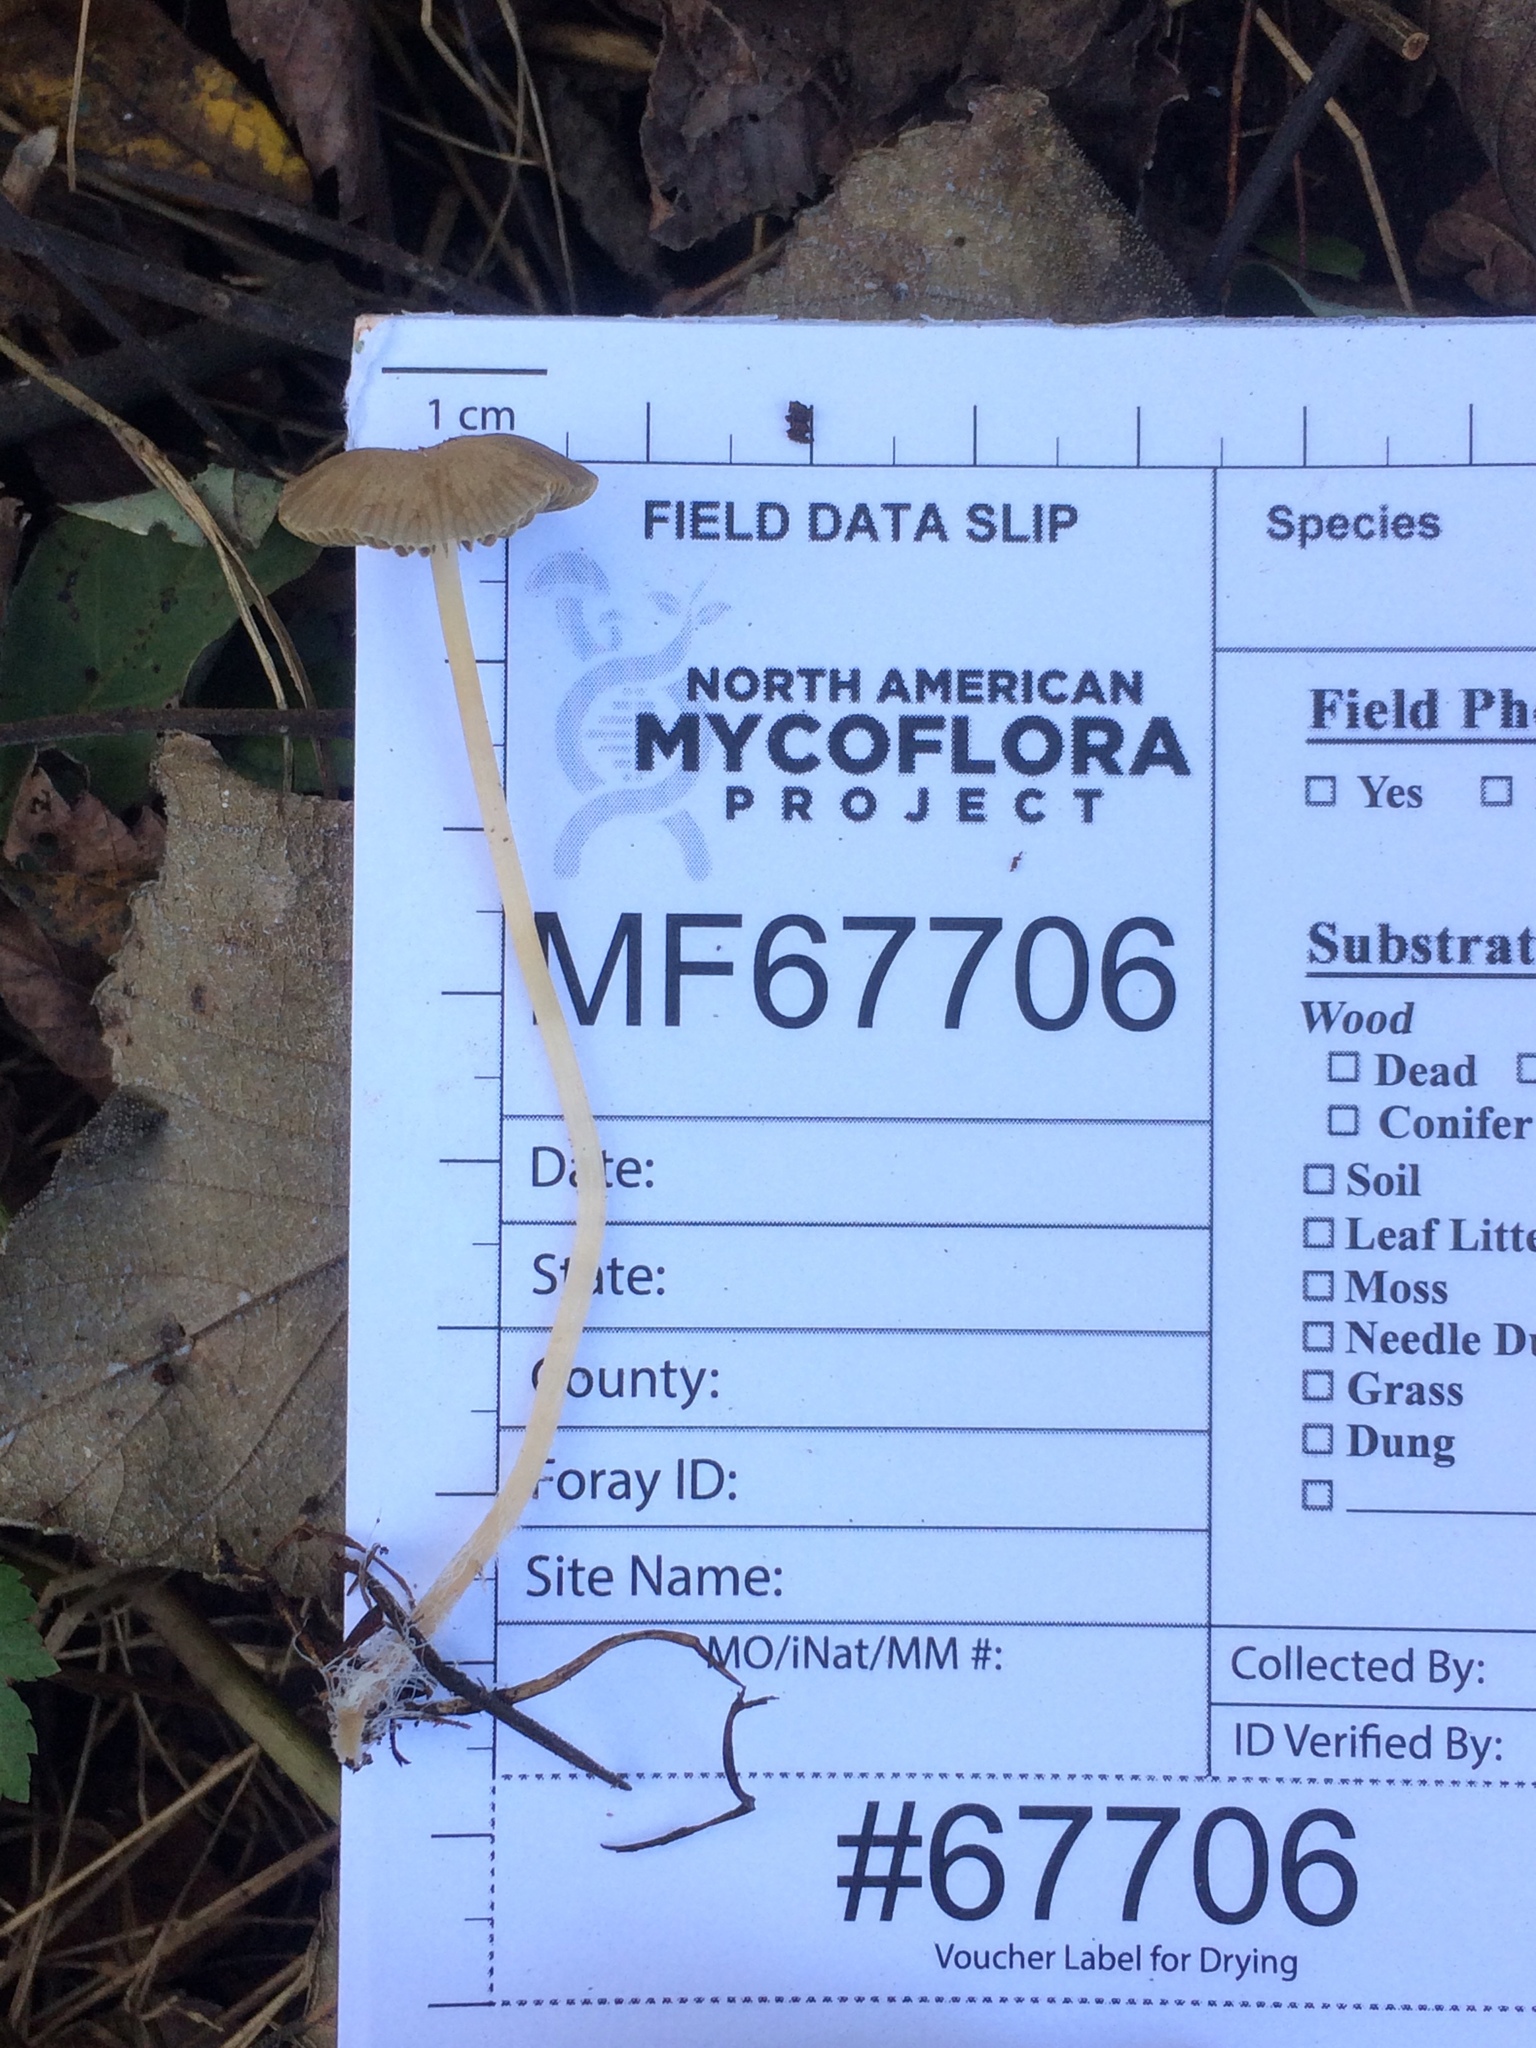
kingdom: Fungi
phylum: Basidiomycota
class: Agaricomycetes
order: Agaricales
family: Psathyrellaceae
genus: Psathyrella
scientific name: Psathyrella amarescens
